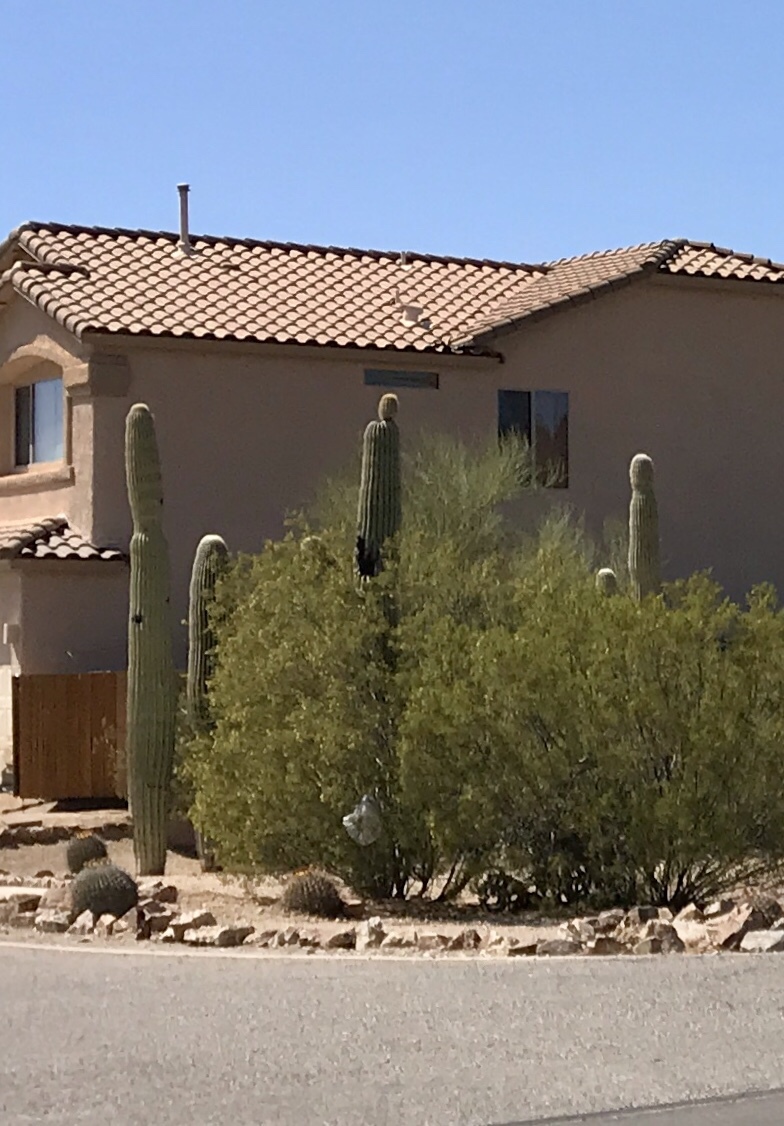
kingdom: Plantae
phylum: Tracheophyta
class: Magnoliopsida
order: Caryophyllales
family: Cactaceae
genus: Carnegiea
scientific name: Carnegiea gigantea
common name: Saguaro
